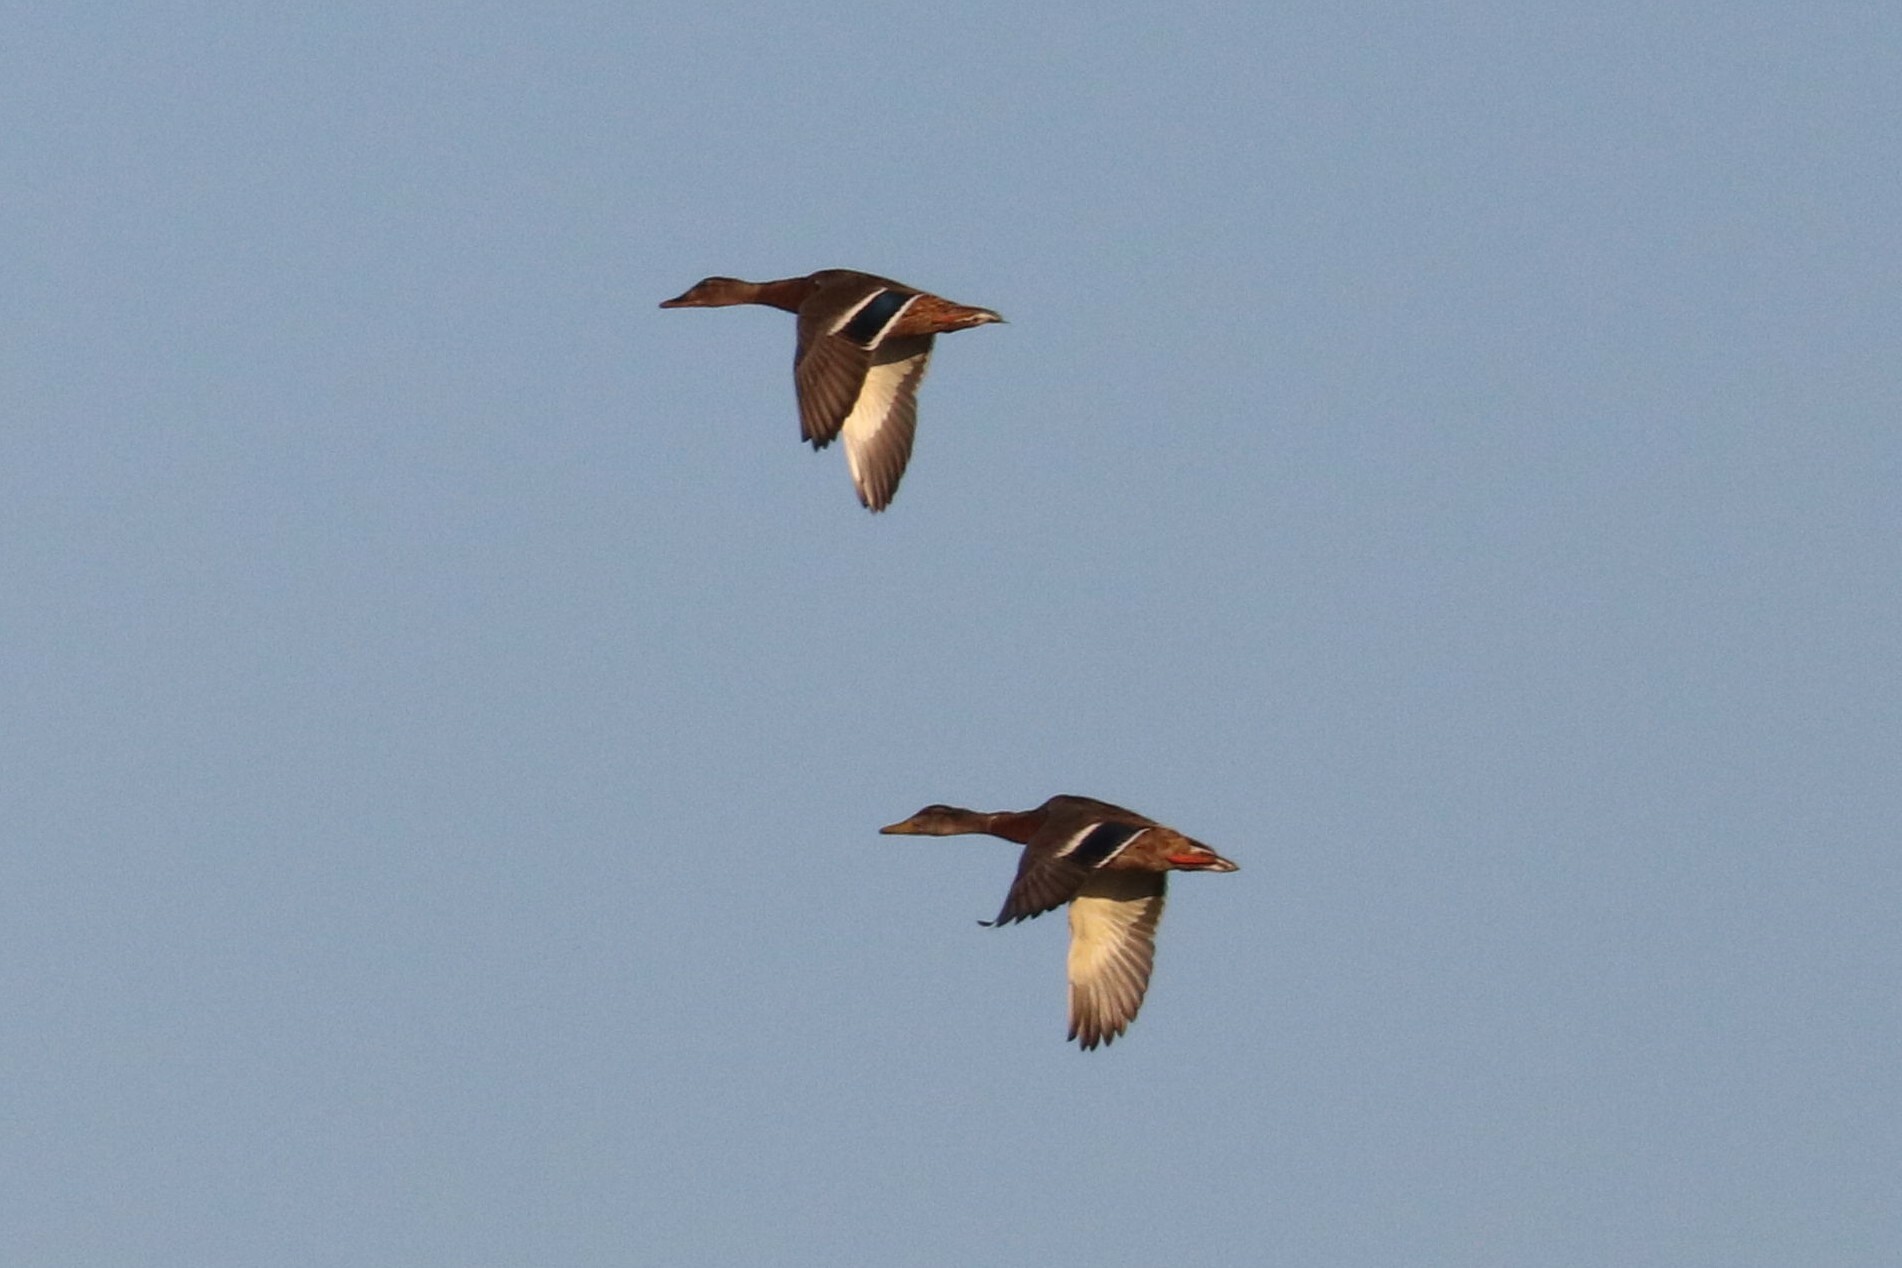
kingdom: Animalia
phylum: Chordata
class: Aves
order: Anseriformes
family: Anatidae
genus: Anas
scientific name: Anas platyrhynchos
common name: Mallard
